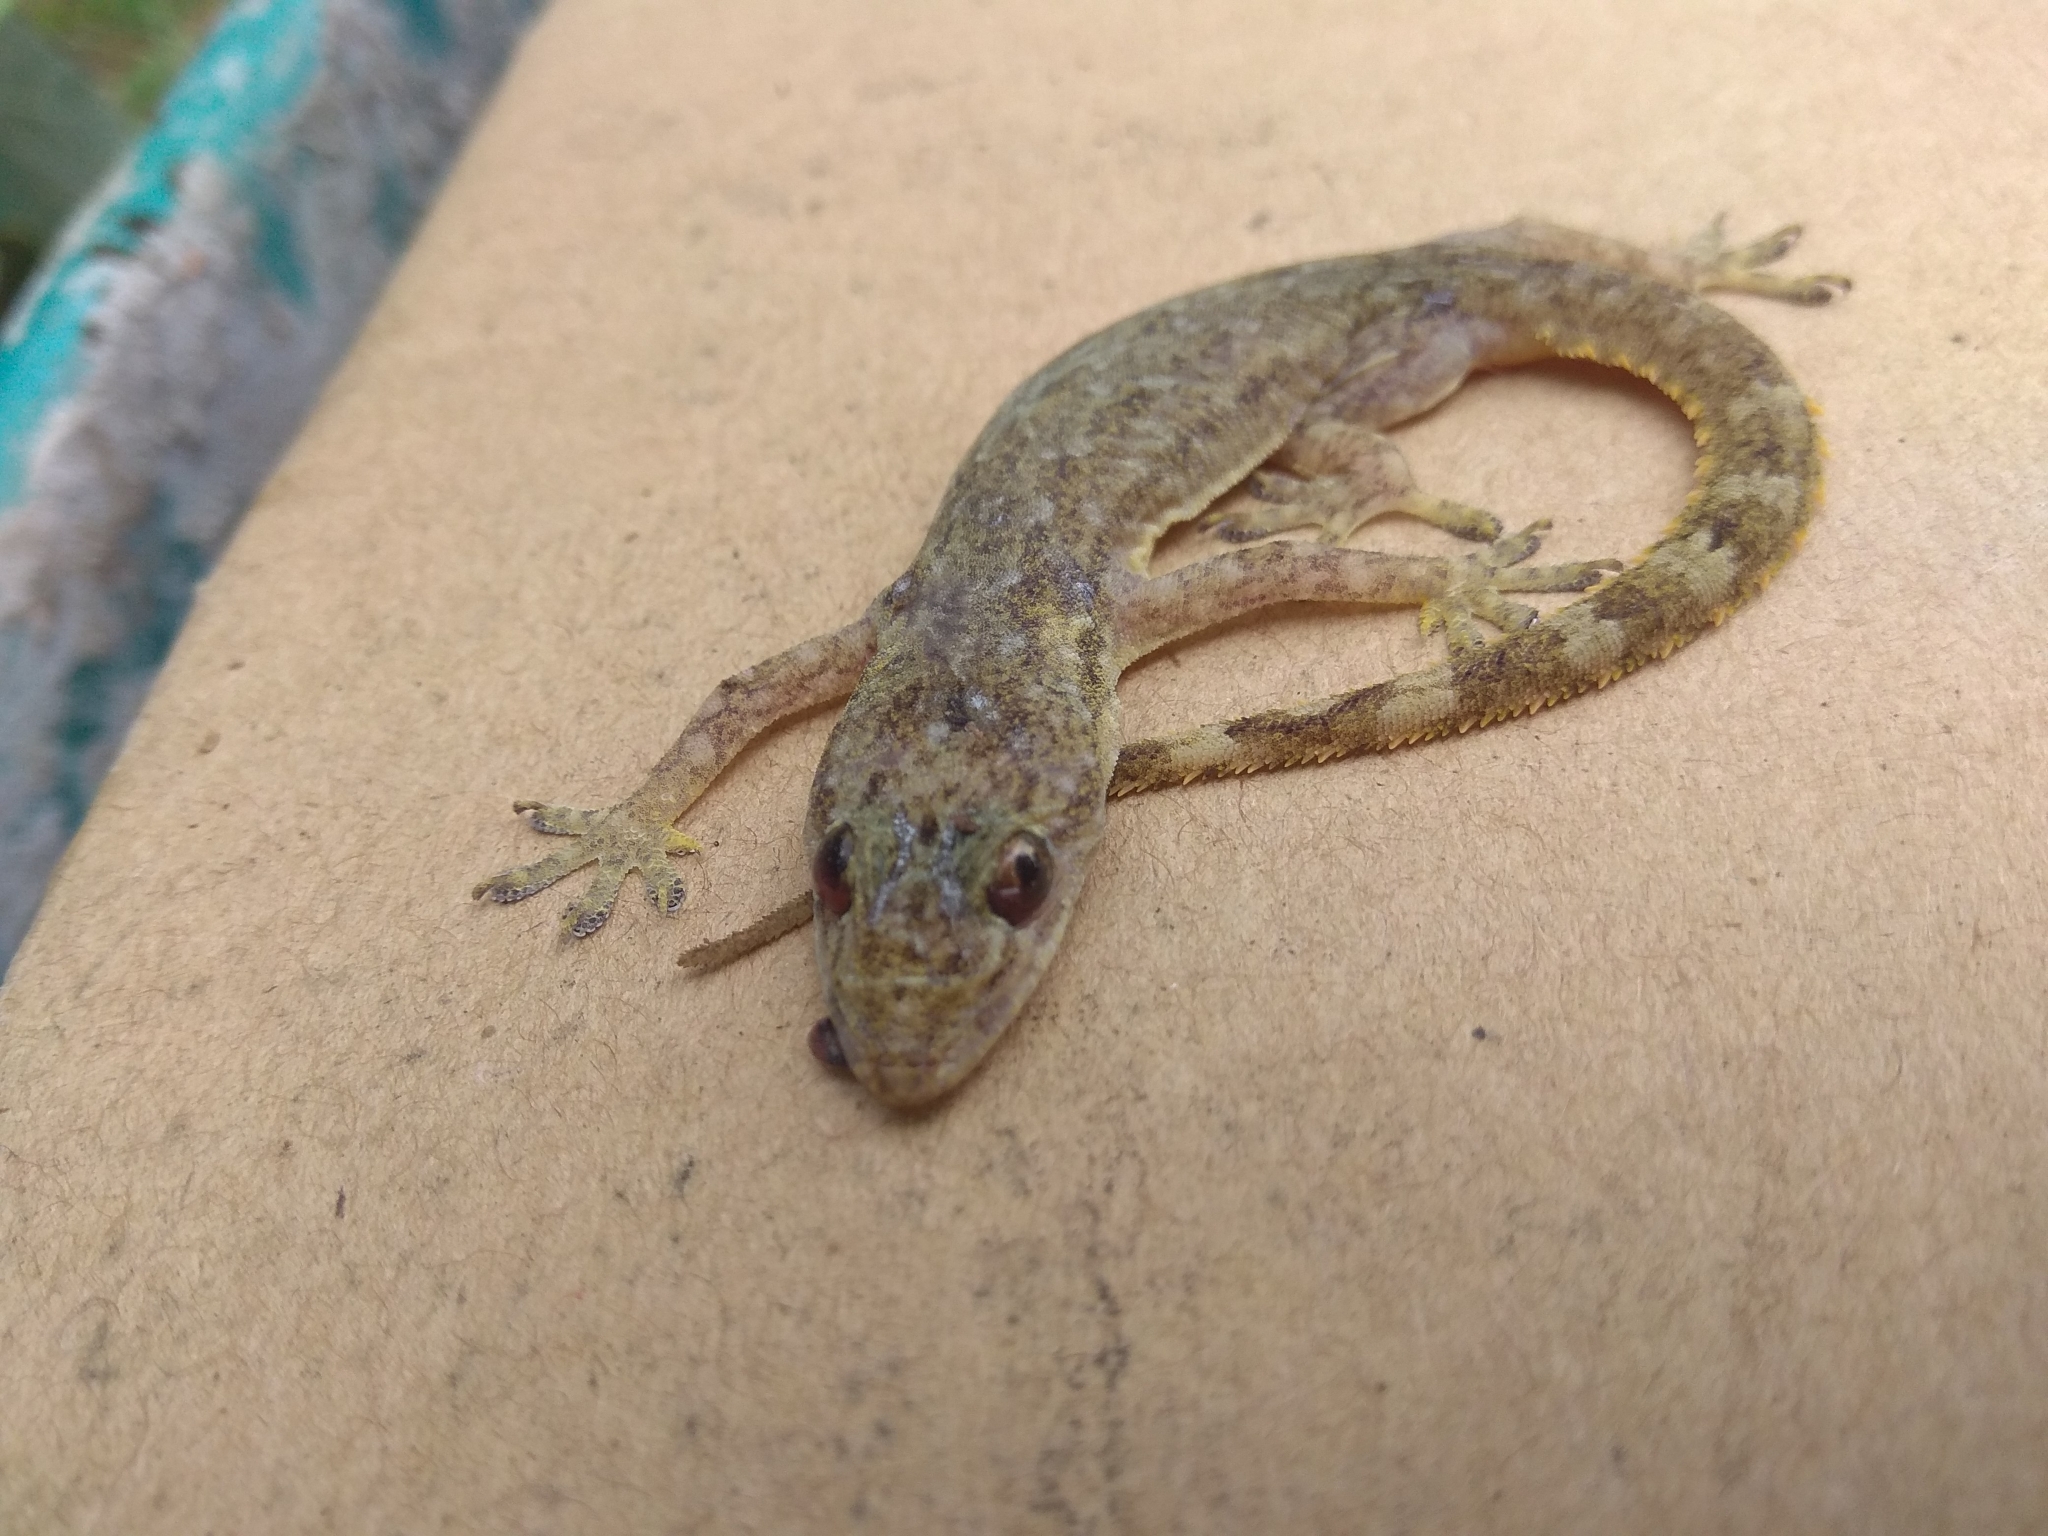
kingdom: Animalia
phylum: Chordata
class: Squamata
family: Gekkonidae
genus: Hemidactylus
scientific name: Hemidactylus garnotii
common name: Indo-pacific gecko
